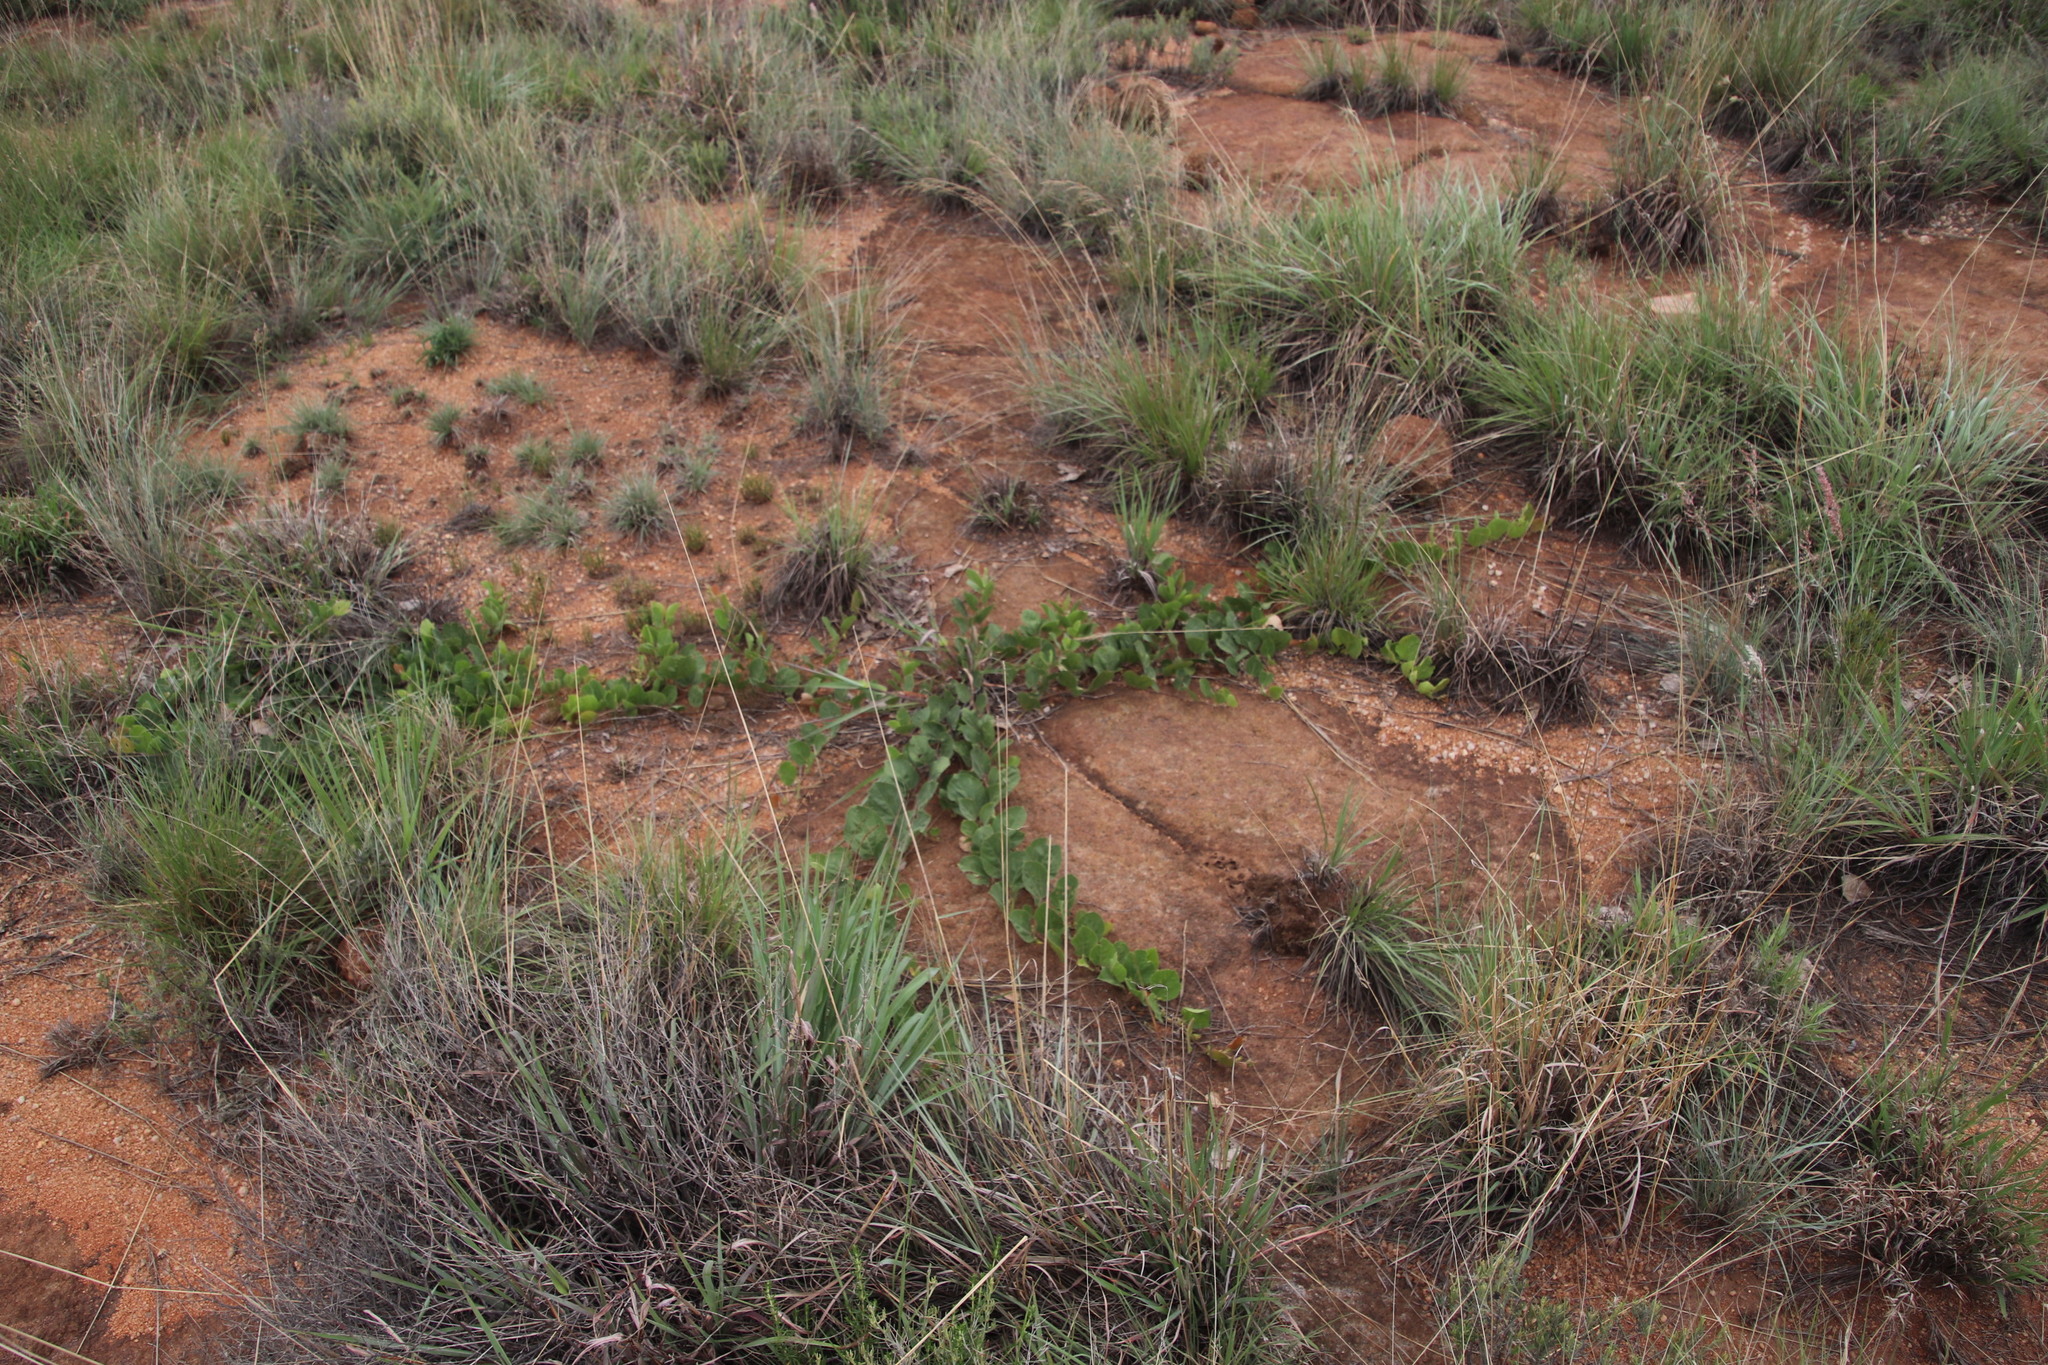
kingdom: Plantae
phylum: Tracheophyta
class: Magnoliopsida
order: Fabales
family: Fabaceae
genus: Rhynchosia
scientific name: Rhynchosia monophylla
